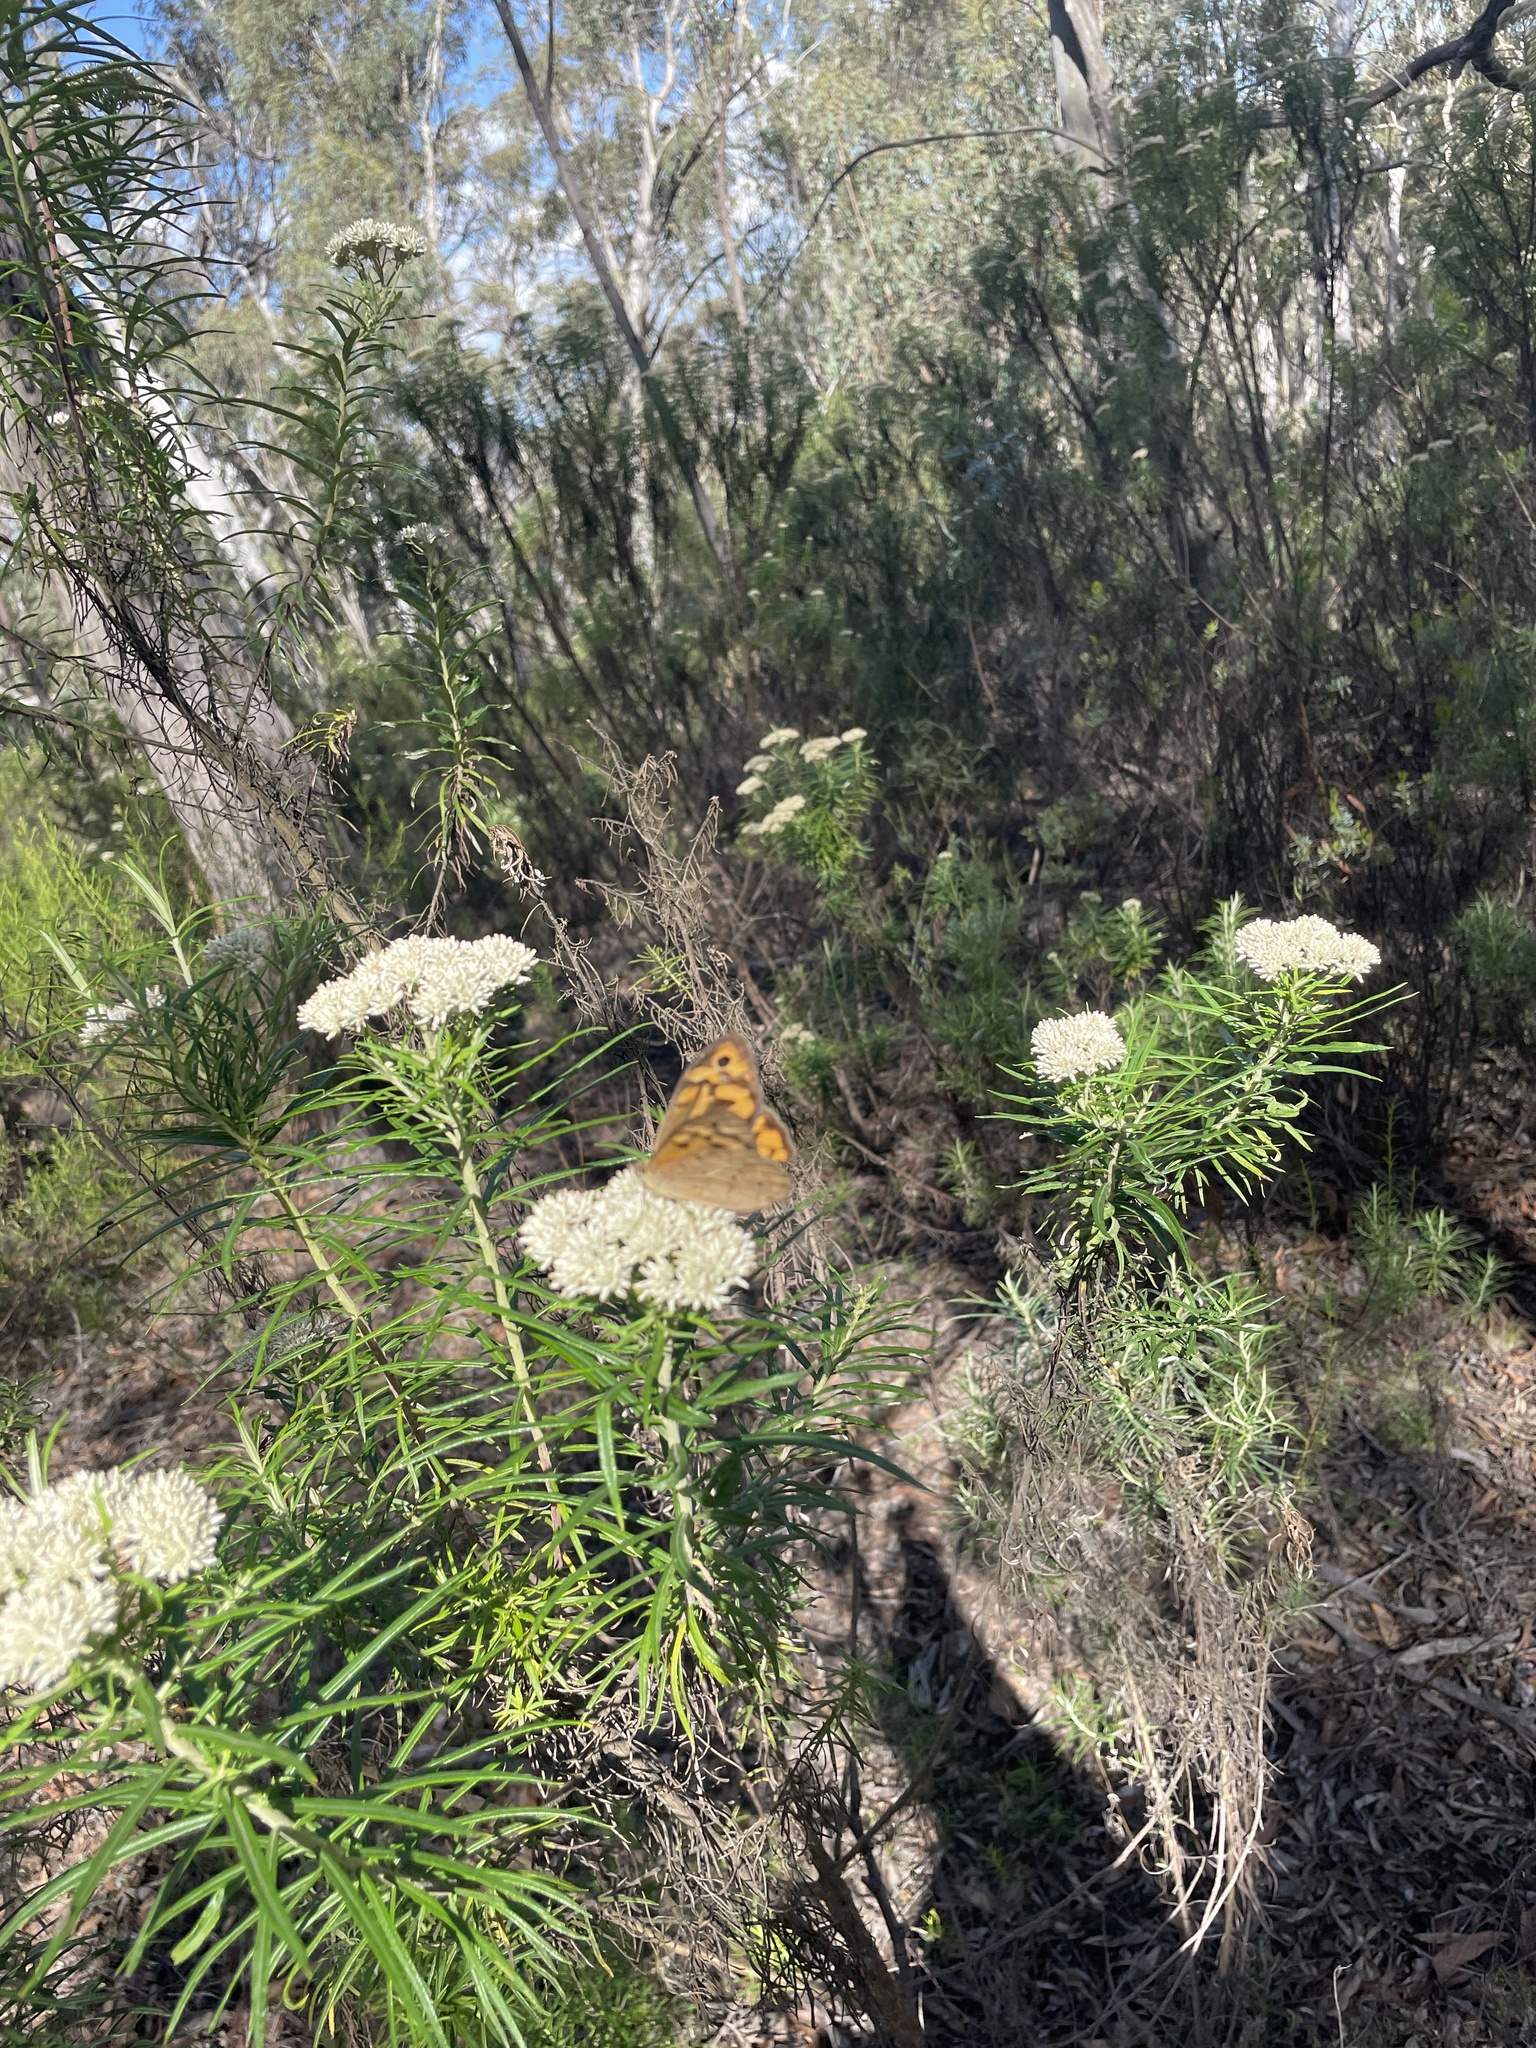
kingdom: Animalia
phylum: Arthropoda
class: Insecta
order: Lepidoptera
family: Nymphalidae
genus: Heteronympha
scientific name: Heteronympha merope
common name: Common brown
